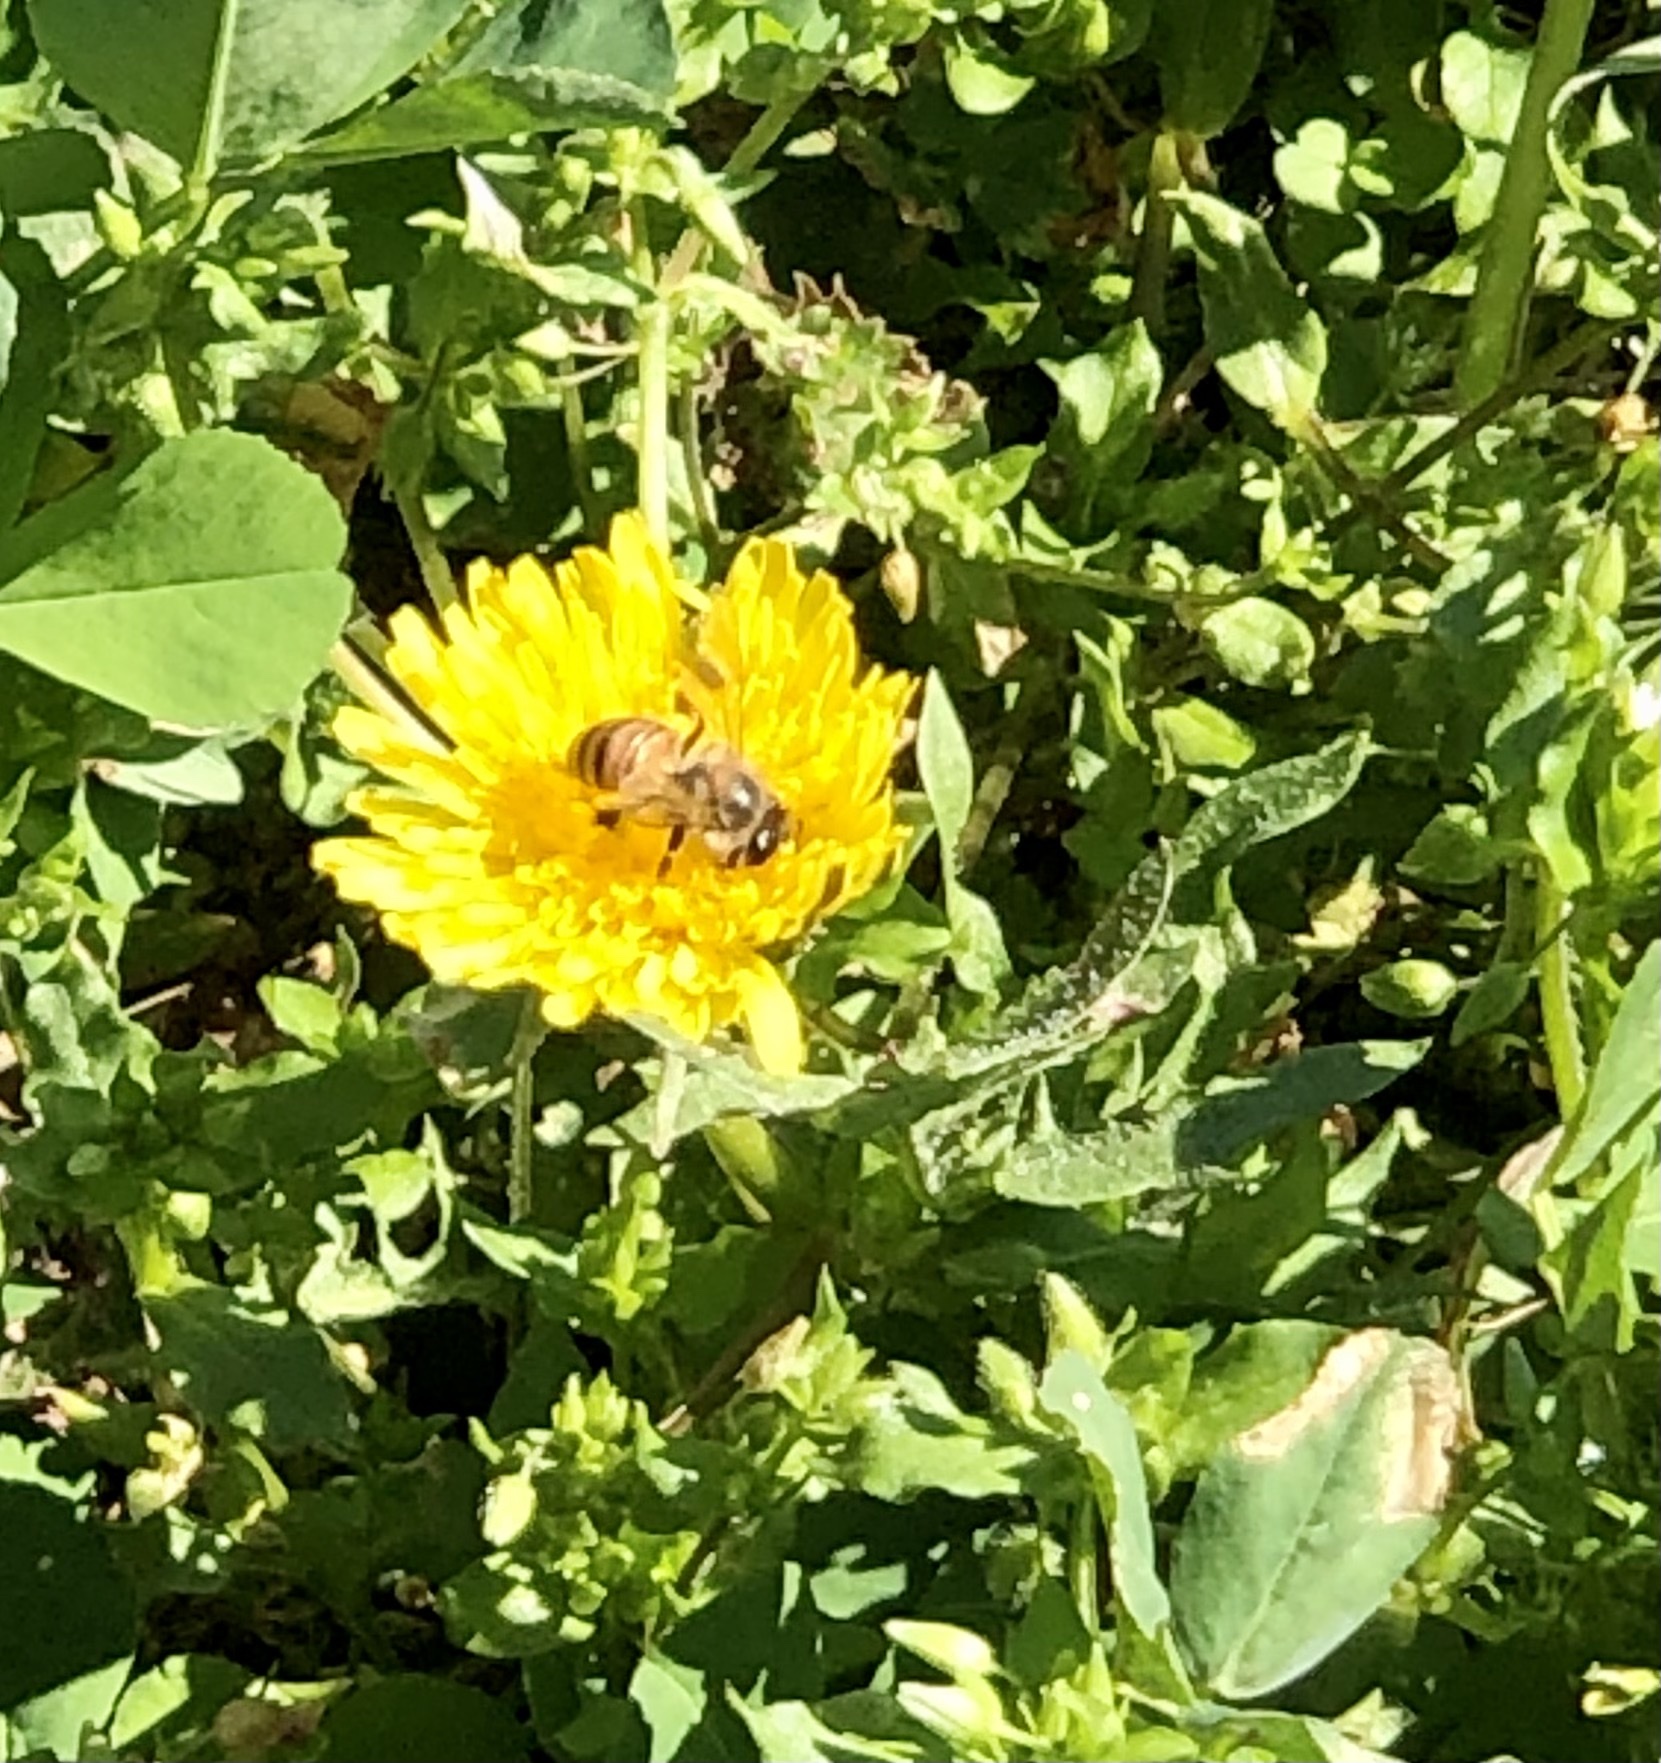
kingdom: Animalia
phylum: Arthropoda
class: Insecta
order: Hymenoptera
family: Apidae
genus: Apis
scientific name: Apis mellifera
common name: Honey bee
